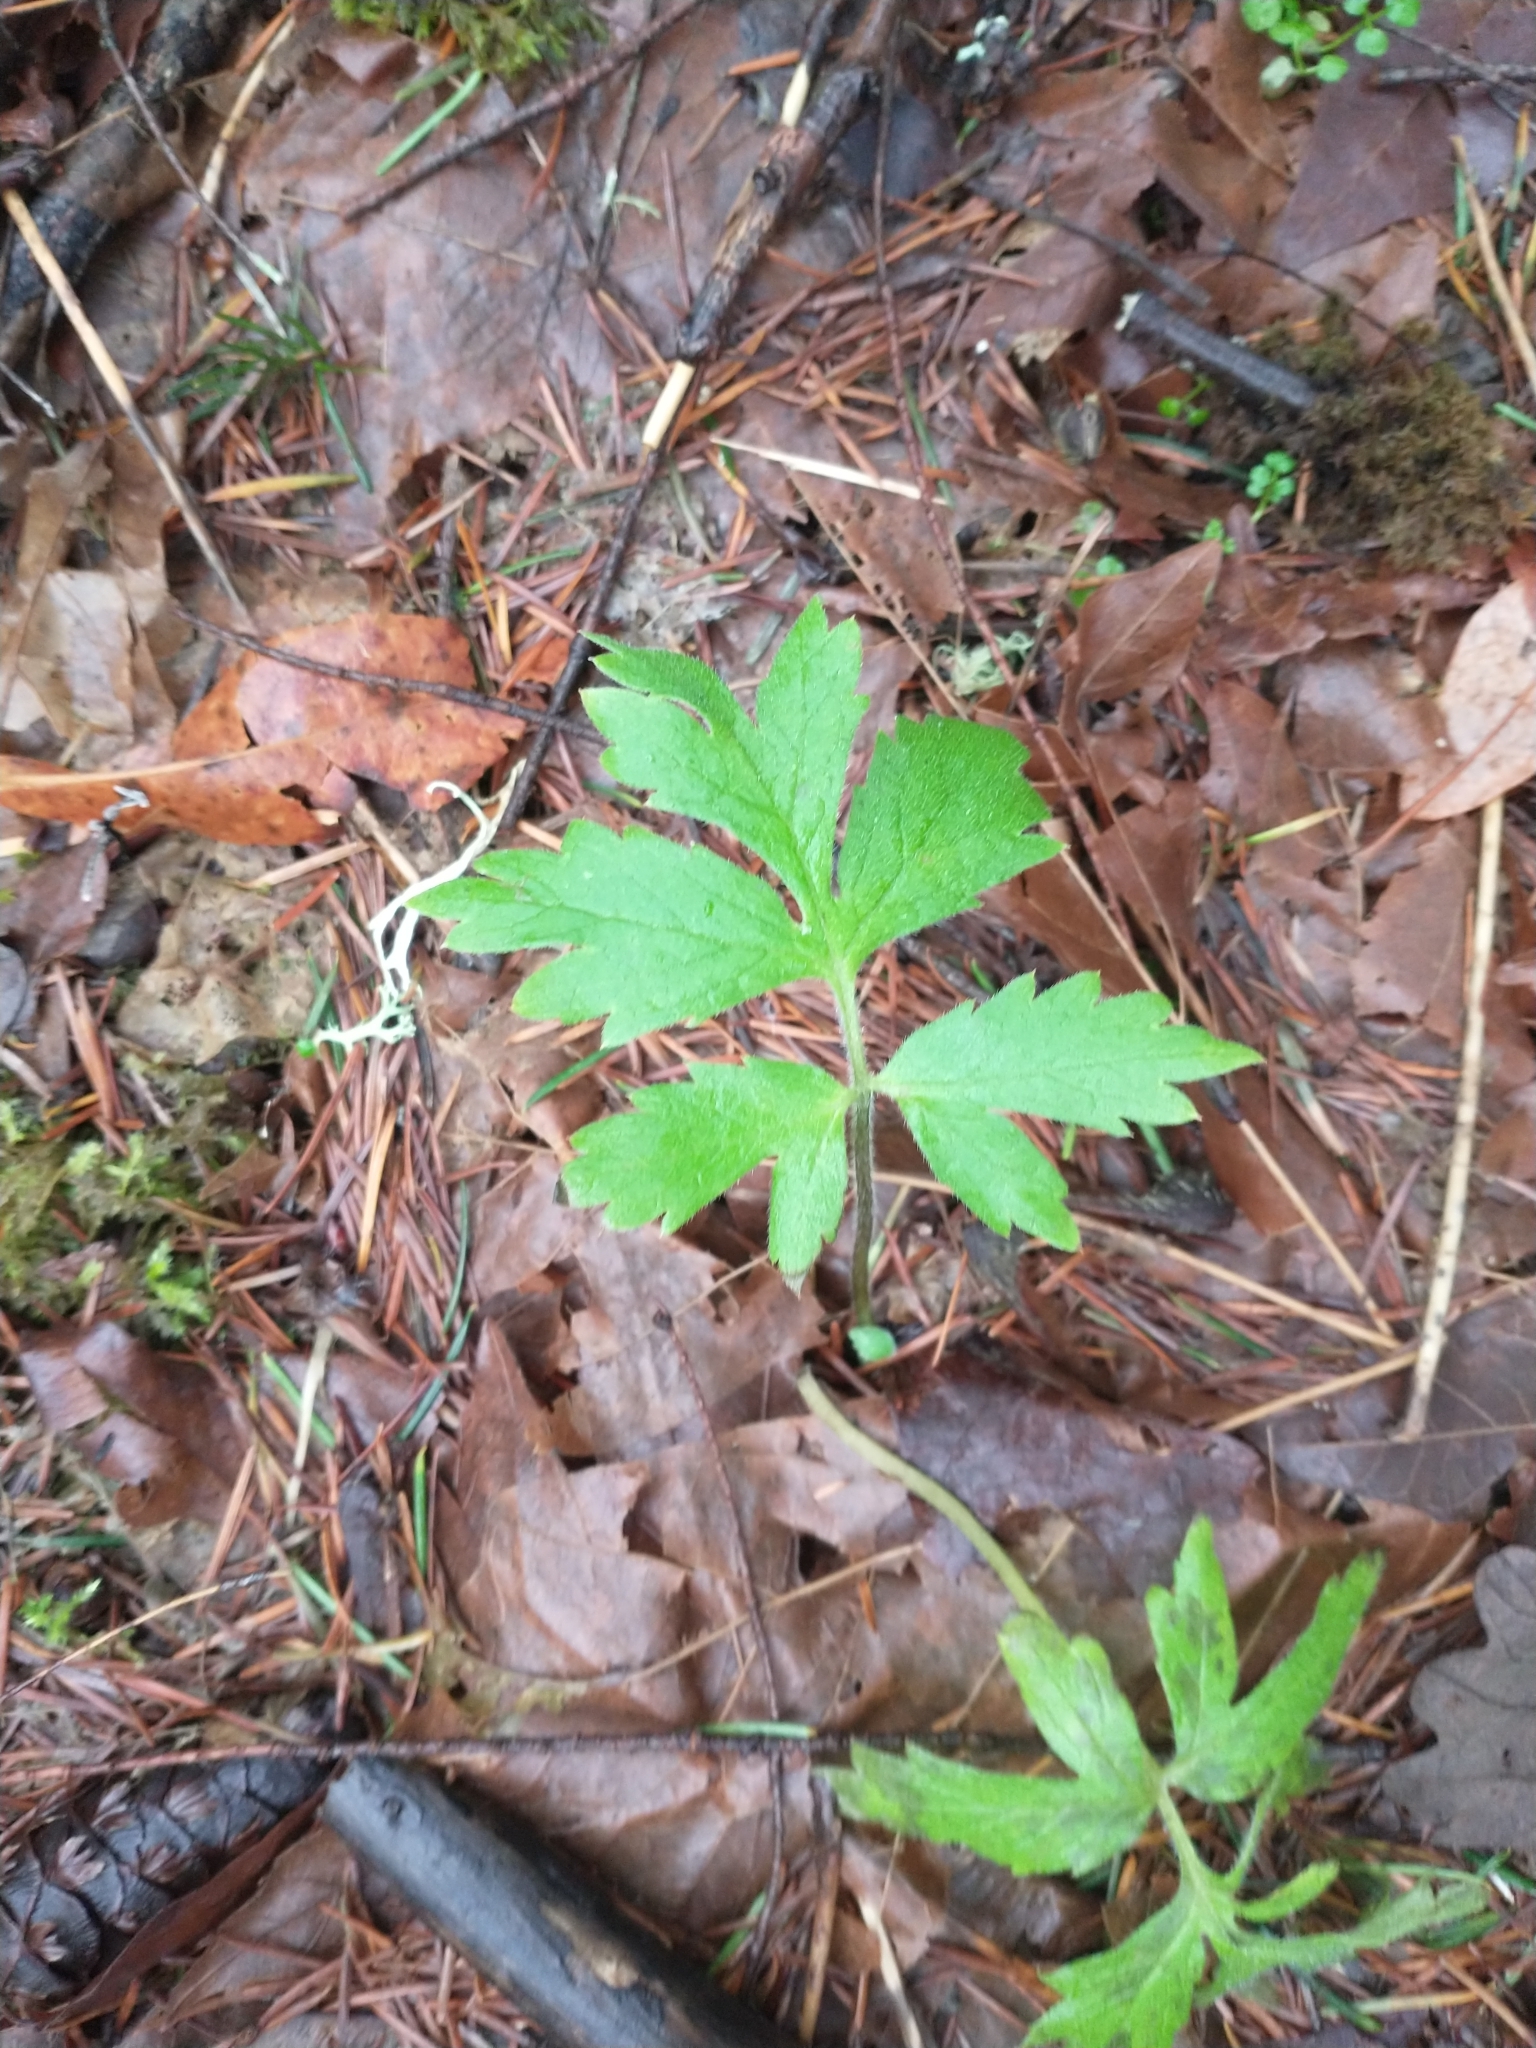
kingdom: Plantae
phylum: Tracheophyta
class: Magnoliopsida
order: Boraginales
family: Hydrophyllaceae
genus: Hydrophyllum
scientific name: Hydrophyllum tenuipes
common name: Pacific waterleaf
